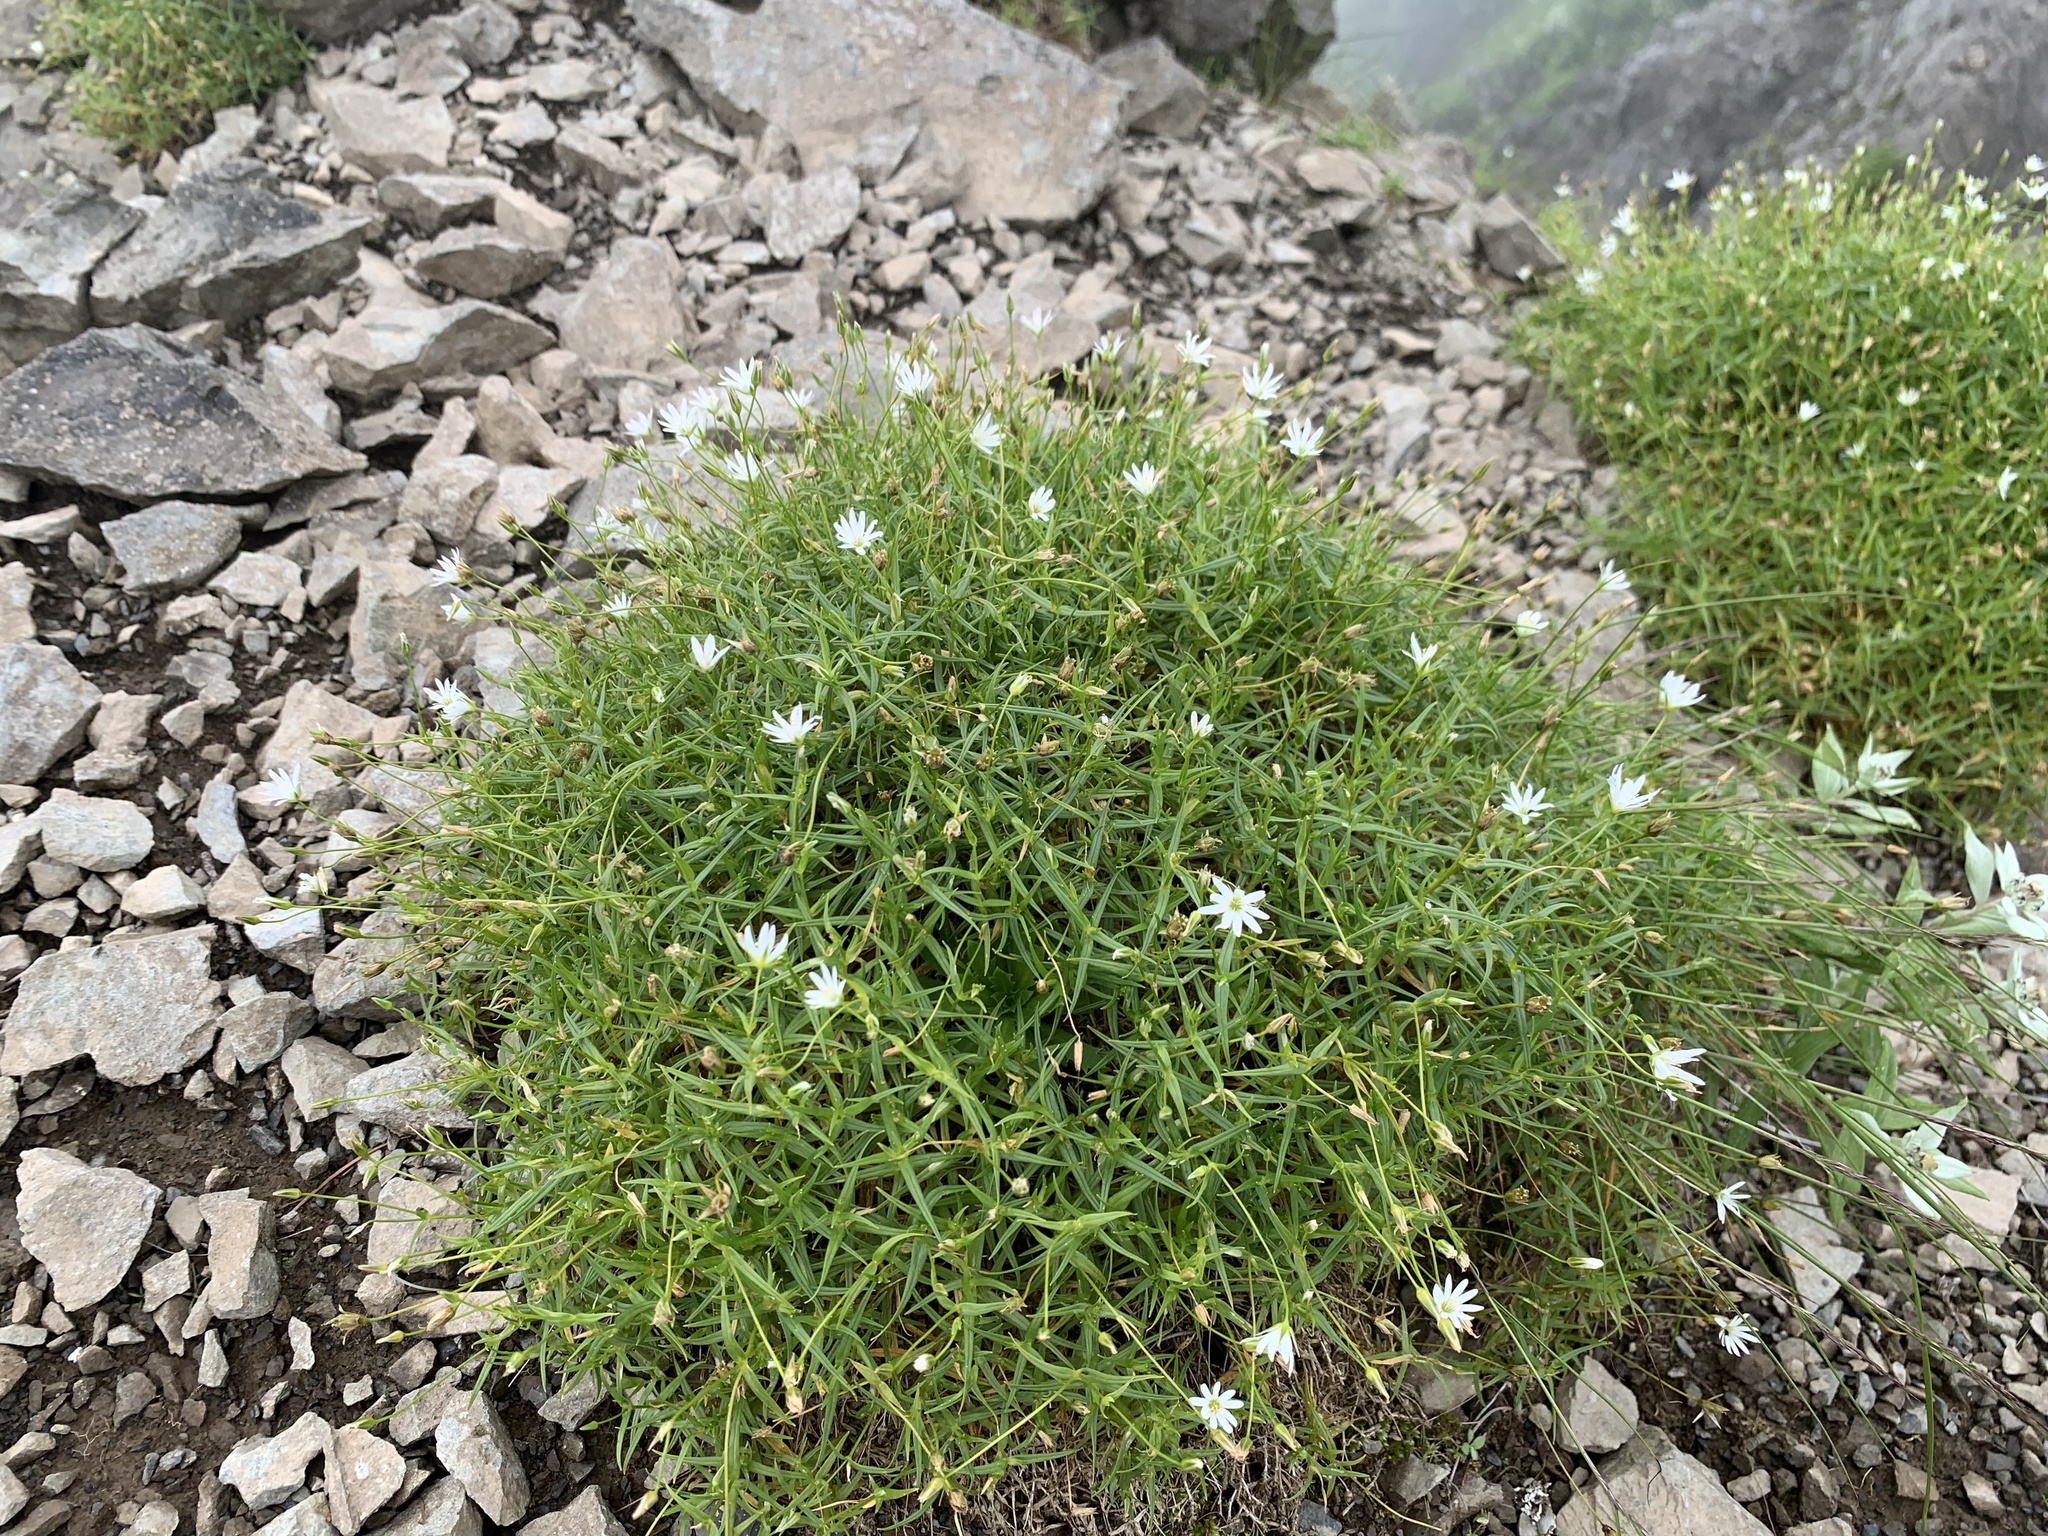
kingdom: Plantae
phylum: Tracheophyta
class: Magnoliopsida
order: Caryophyllales
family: Caryophyllaceae
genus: Stellaria
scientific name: Stellaria nipponica
